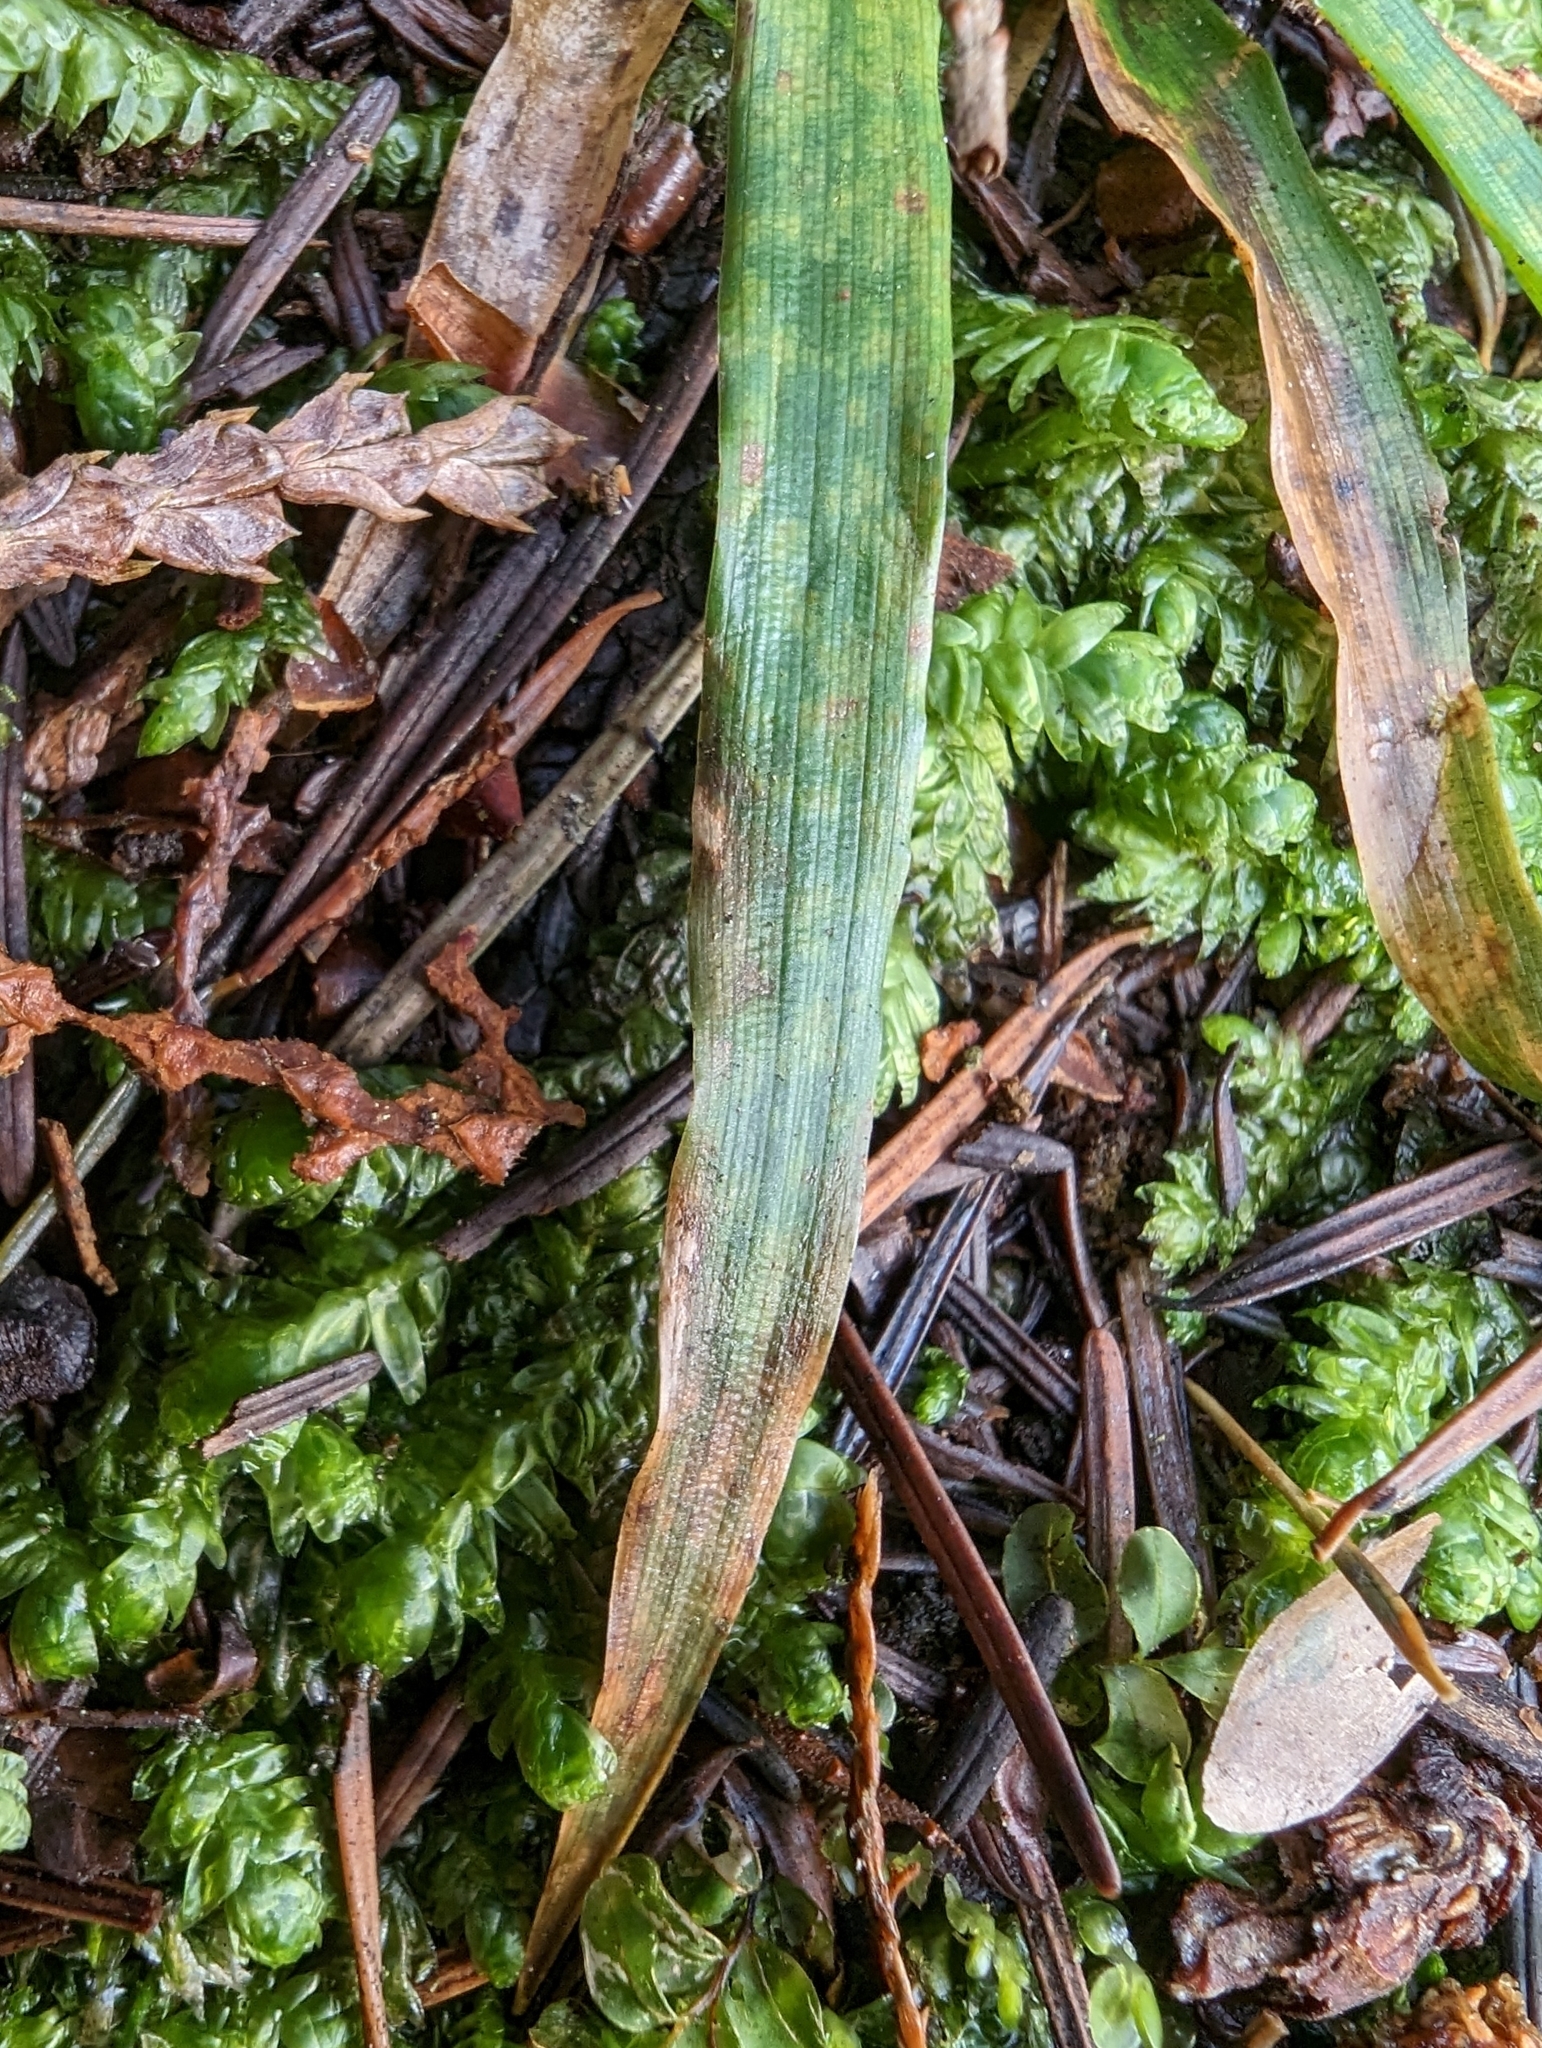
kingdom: Plantae
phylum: Tracheophyta
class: Liliopsida
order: Poales
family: Juncaceae
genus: Luzula
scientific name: Luzula parviflora
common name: Millet woodrush
